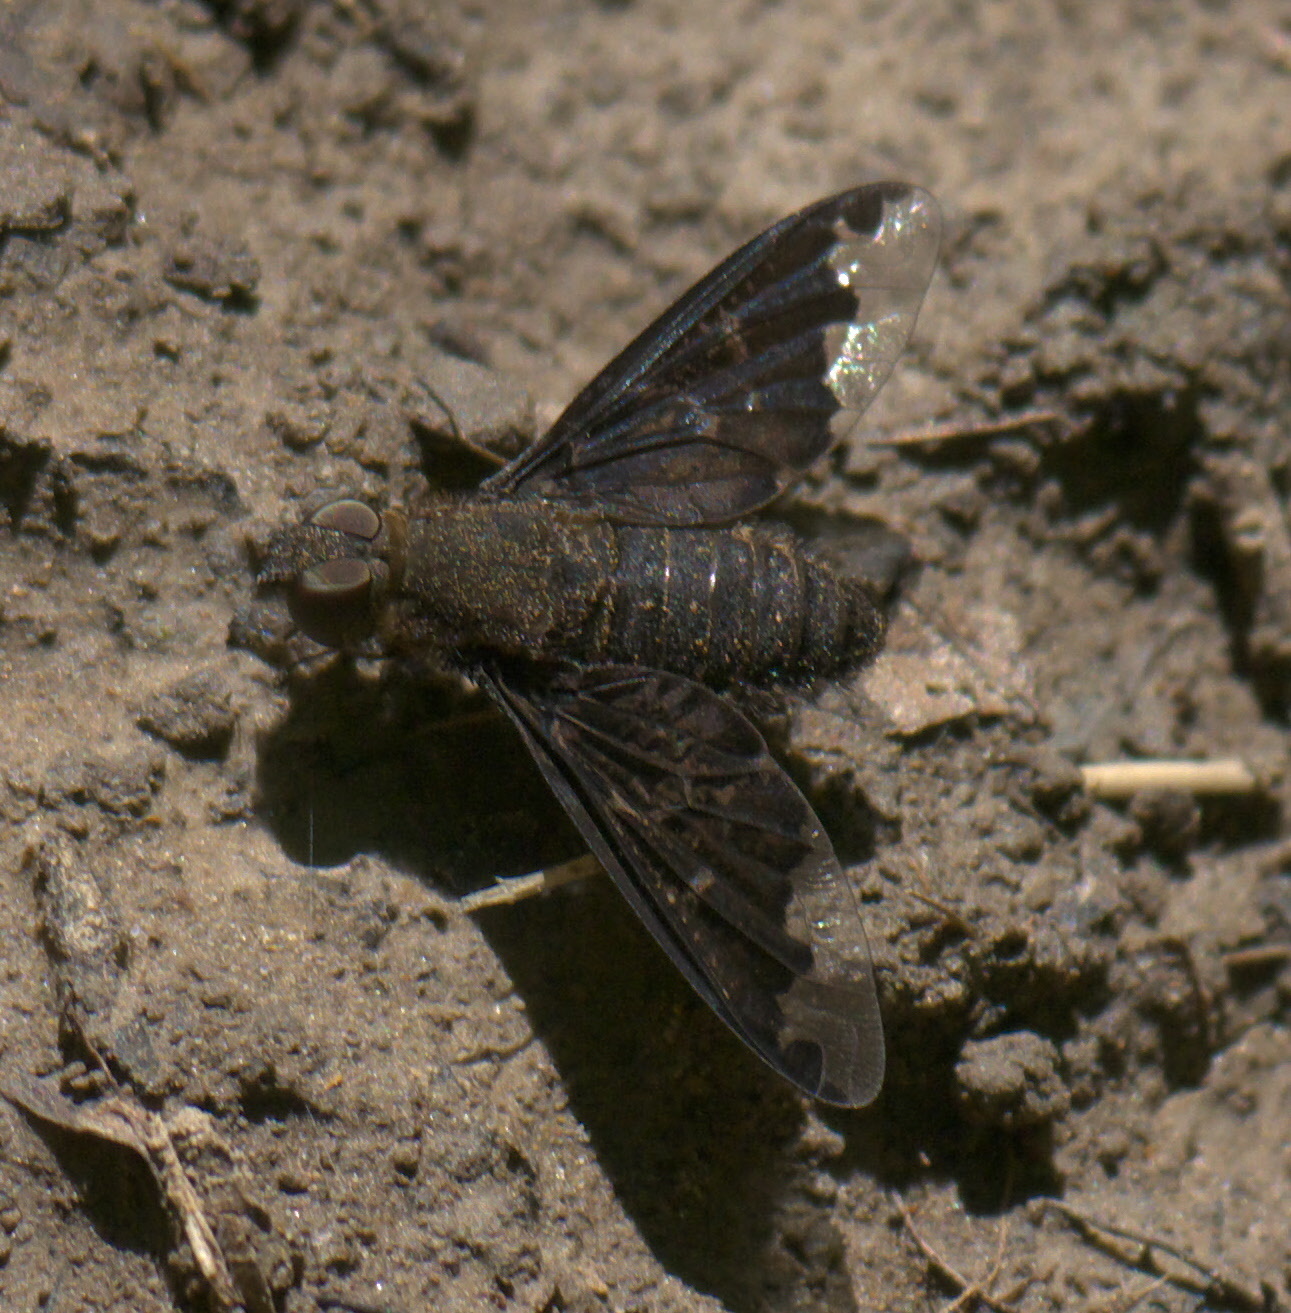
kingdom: Animalia
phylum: Arthropoda
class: Insecta
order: Diptera
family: Bombyliidae
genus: Hemipenthes
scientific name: Hemipenthes sinuosus
